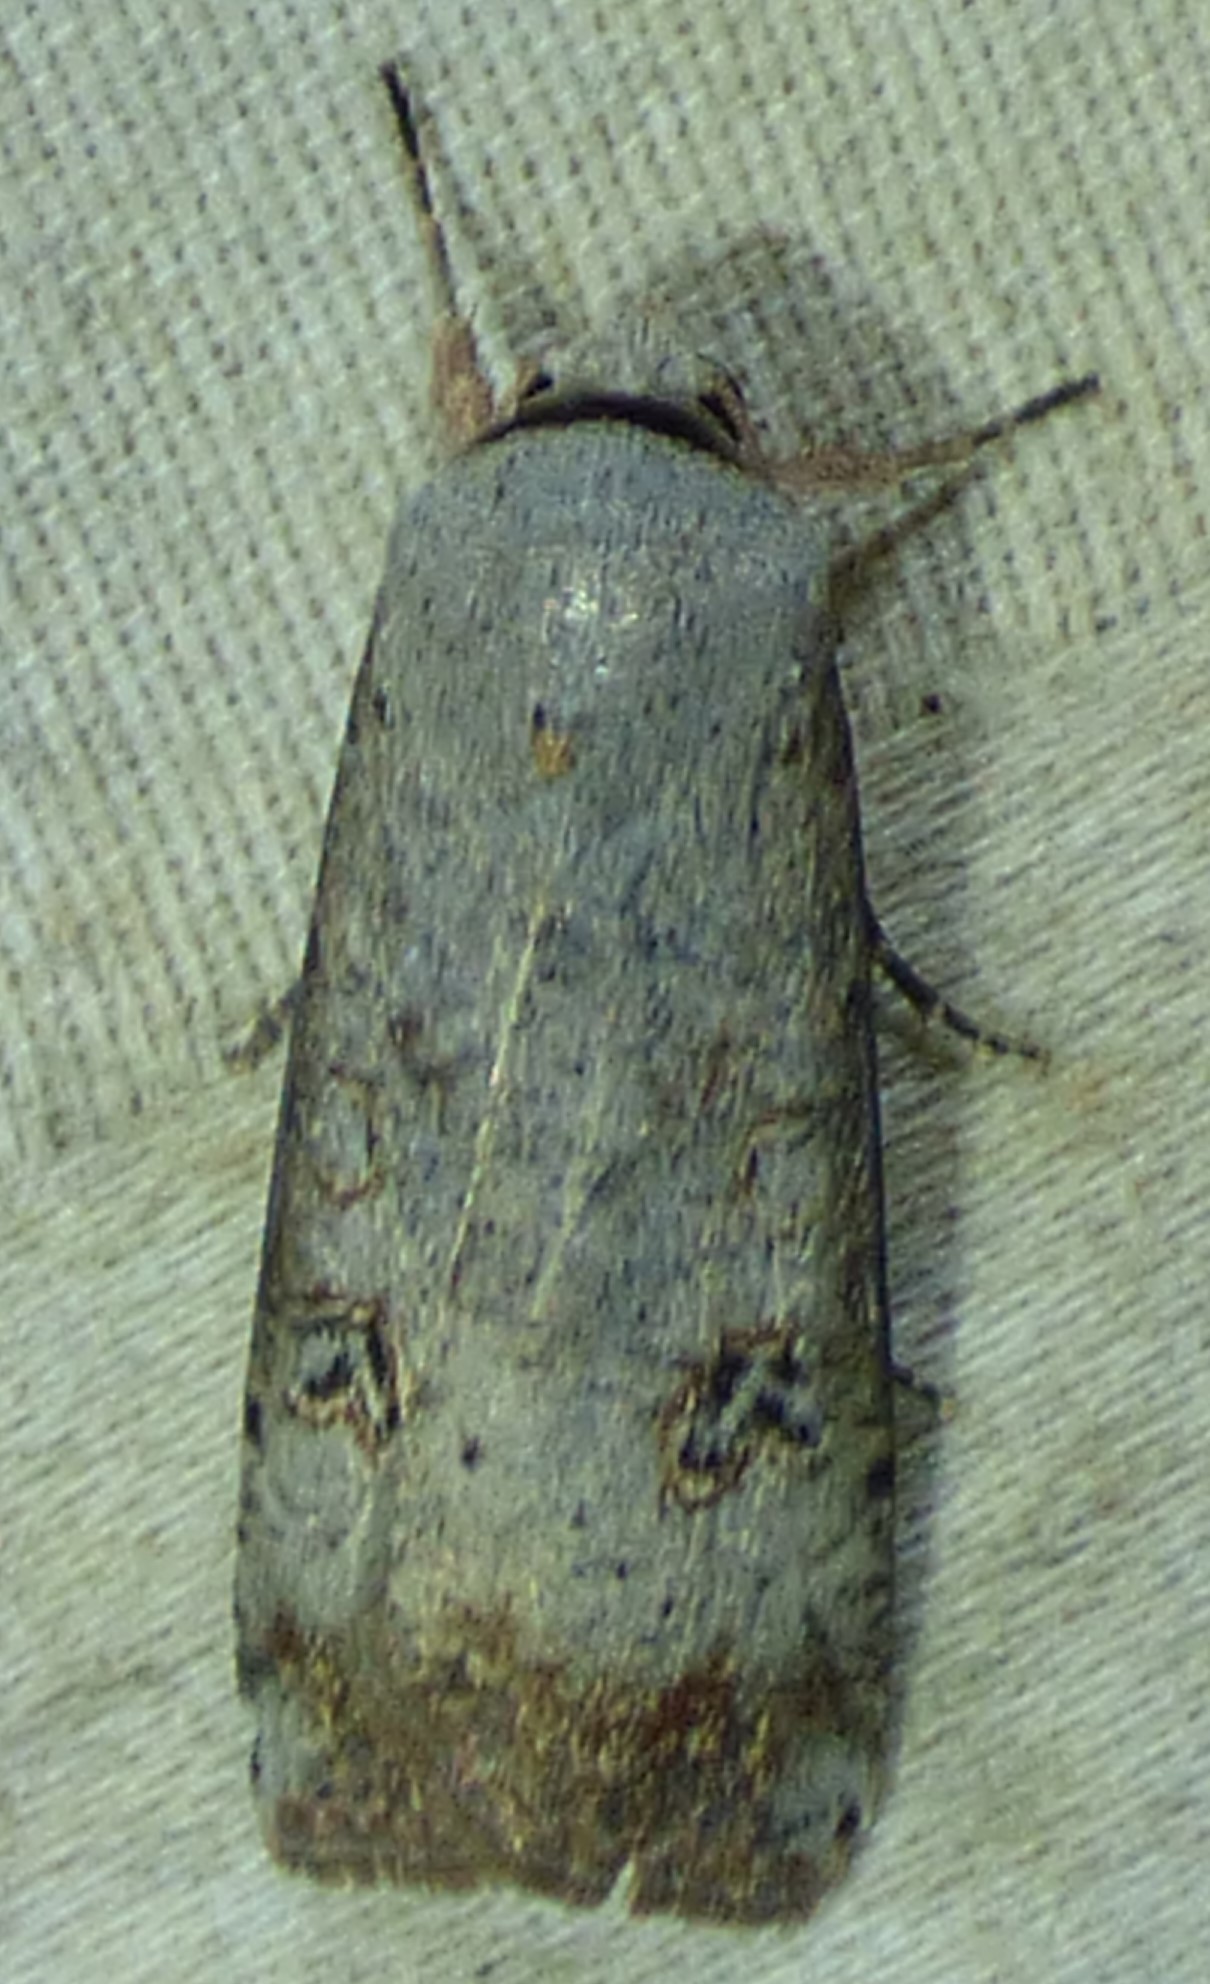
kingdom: Animalia
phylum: Arthropoda
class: Insecta
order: Lepidoptera
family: Noctuidae
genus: Anicla
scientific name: Anicla infecta
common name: Green cutworm
